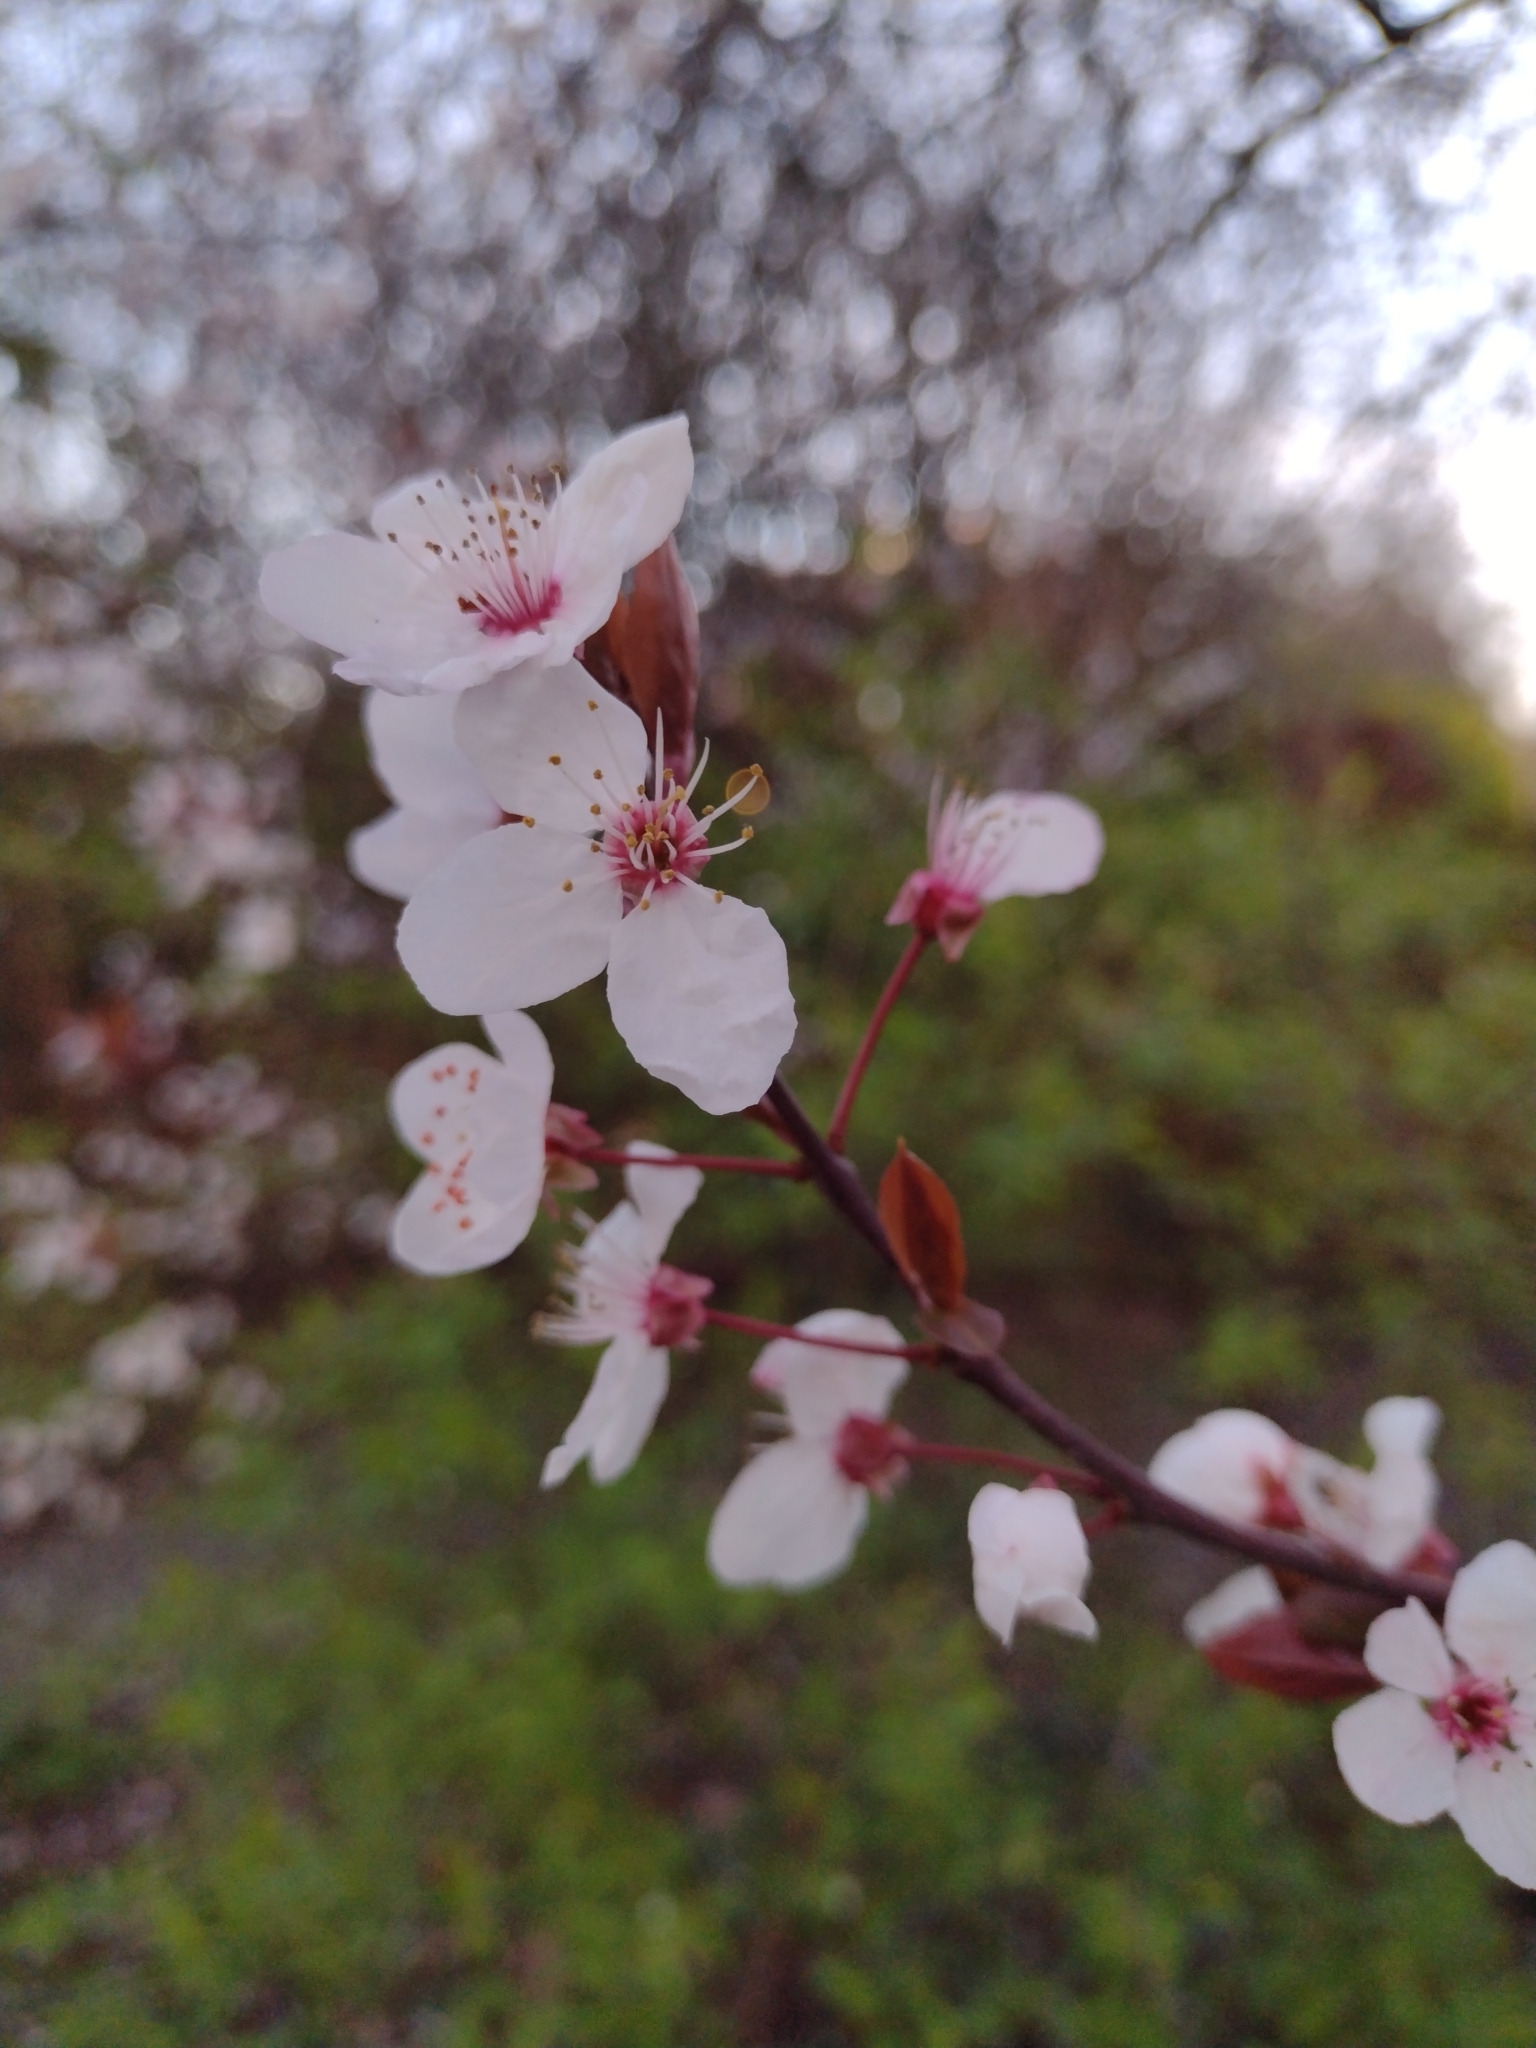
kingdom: Plantae
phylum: Tracheophyta
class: Magnoliopsida
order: Rosales
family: Rosaceae
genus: Prunus
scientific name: Prunus cerasifera
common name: Cherry plum
